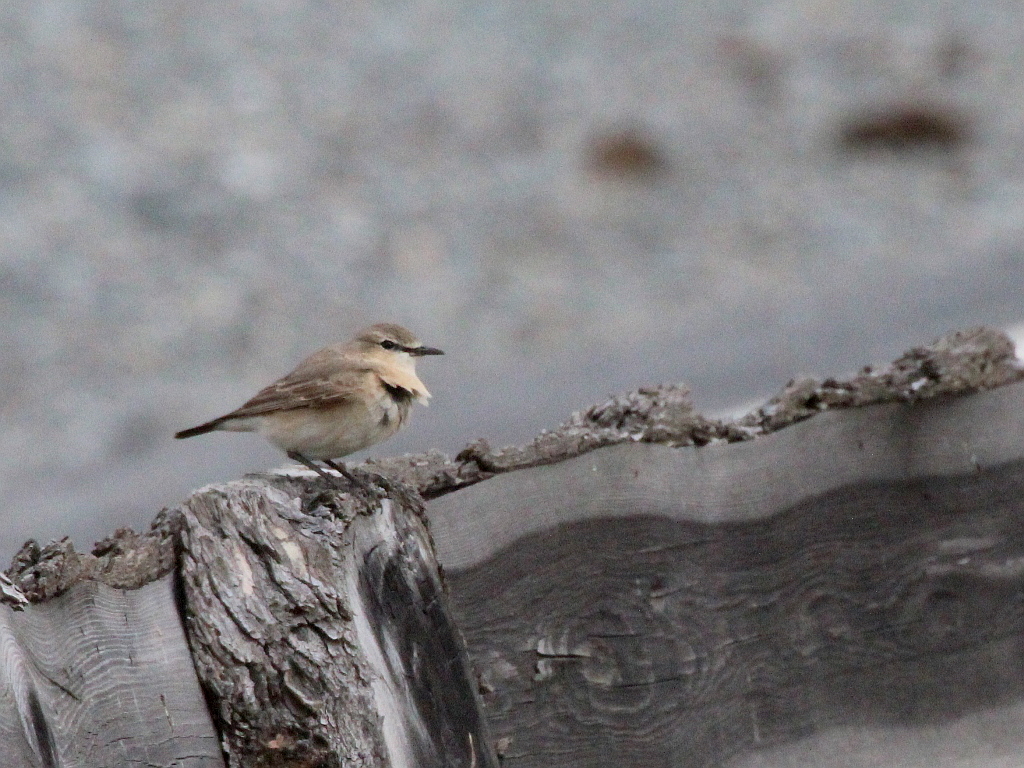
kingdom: Animalia
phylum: Chordata
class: Aves
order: Passeriformes
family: Muscicapidae
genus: Oenanthe
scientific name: Oenanthe isabellina
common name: Isabelline wheatear
